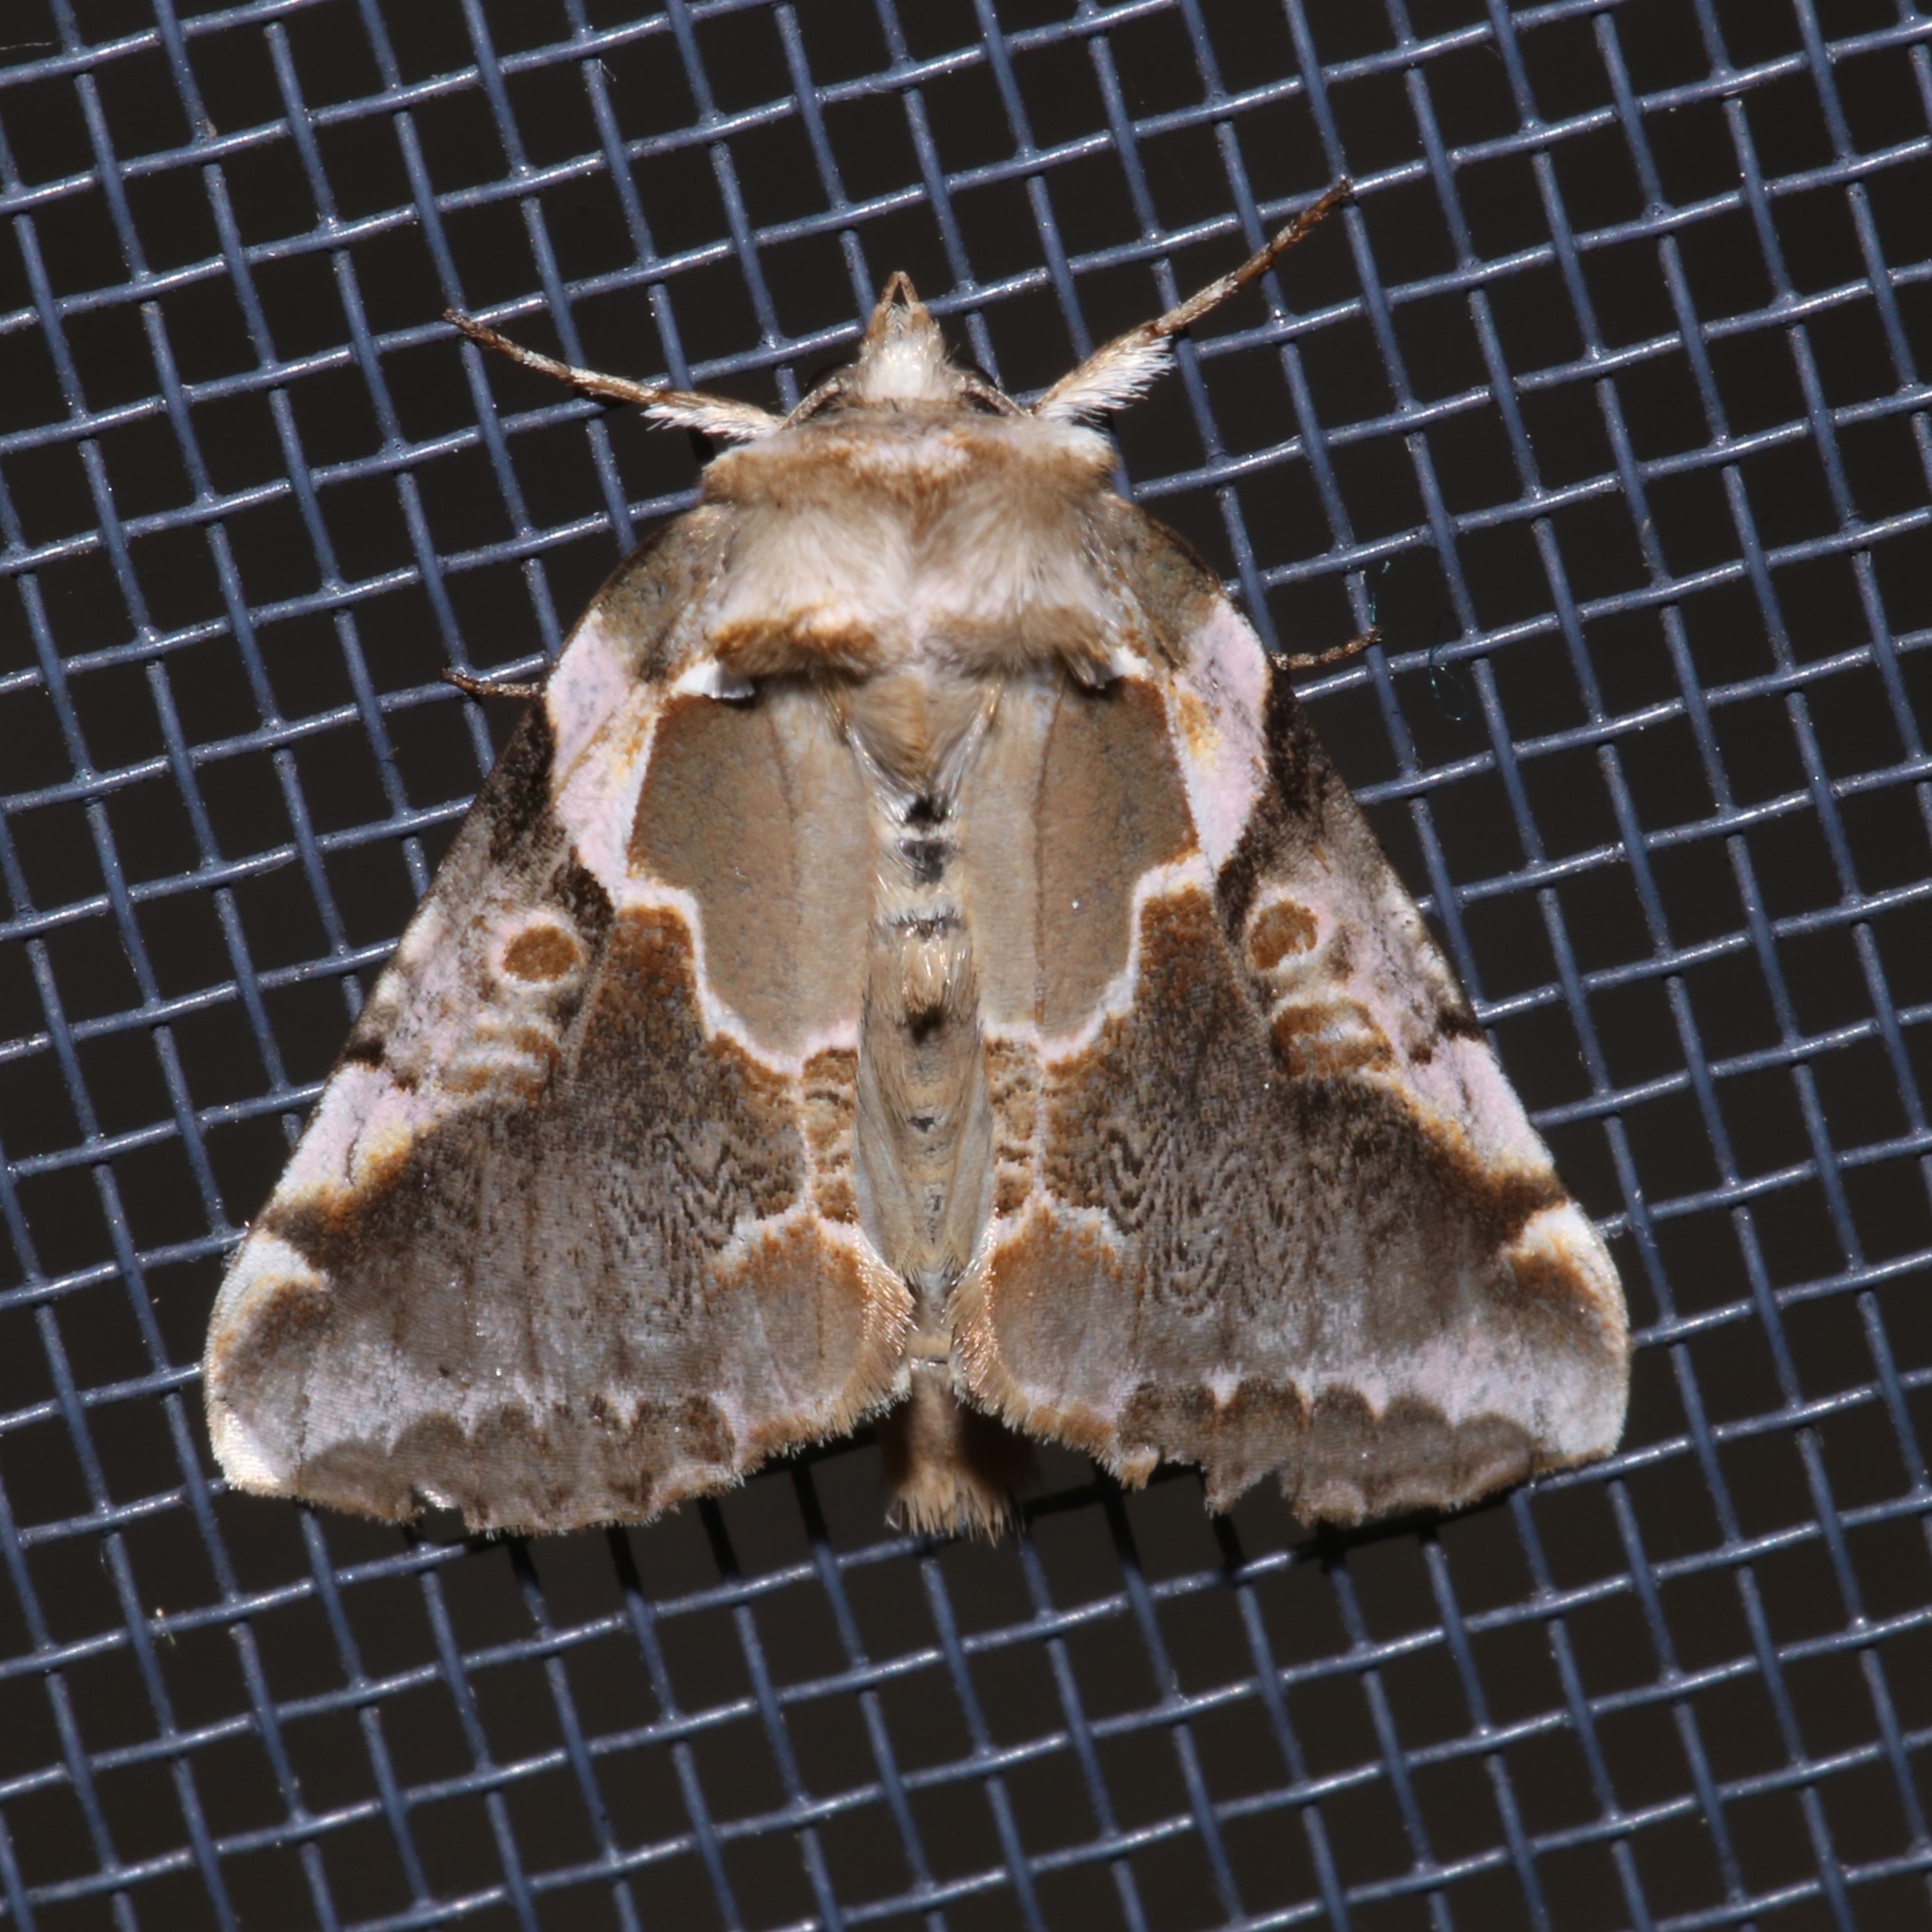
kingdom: Animalia
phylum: Arthropoda
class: Insecta
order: Lepidoptera
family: Drepanidae
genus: Habrosyne
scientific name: Habrosyne gloriosa
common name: Glorious habrosyne moth
